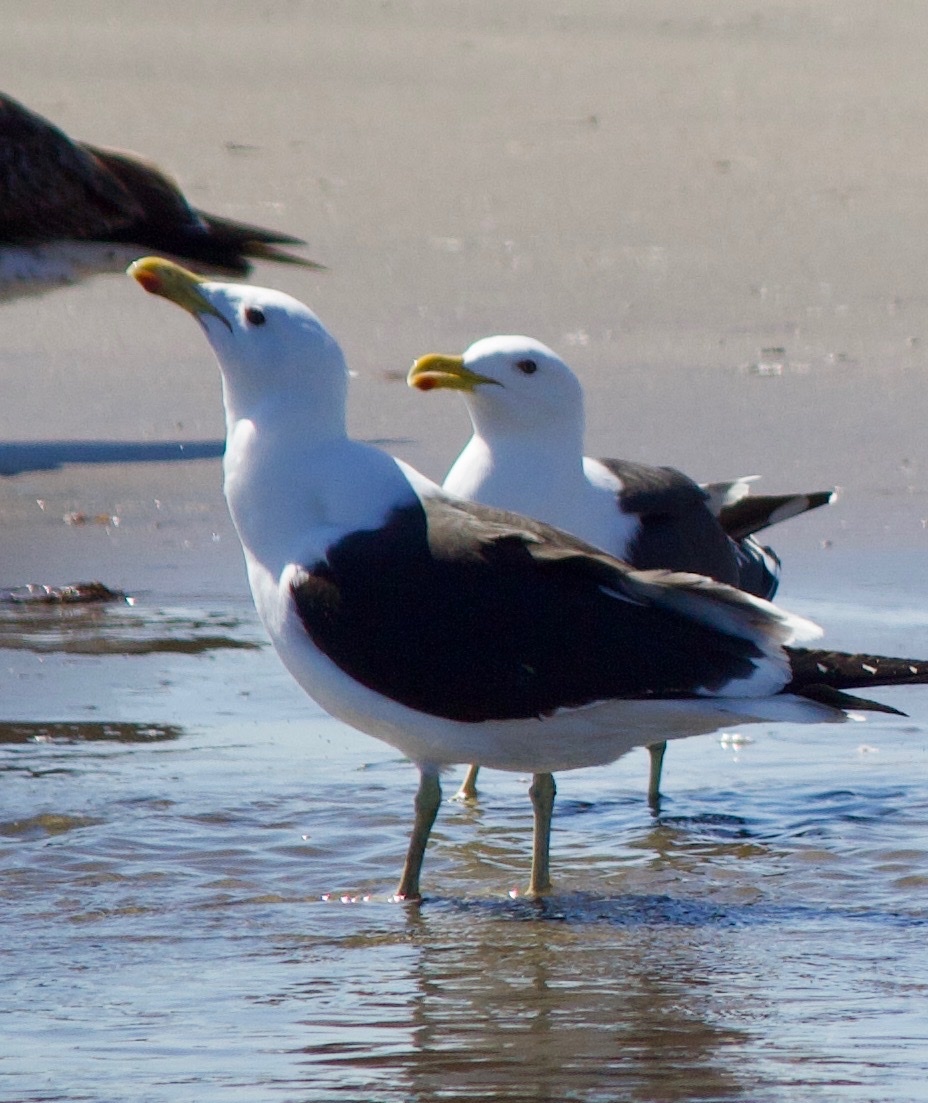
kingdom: Animalia
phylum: Chordata
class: Aves
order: Charadriiformes
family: Laridae
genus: Larus
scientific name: Larus dominicanus
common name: Kelp gull
